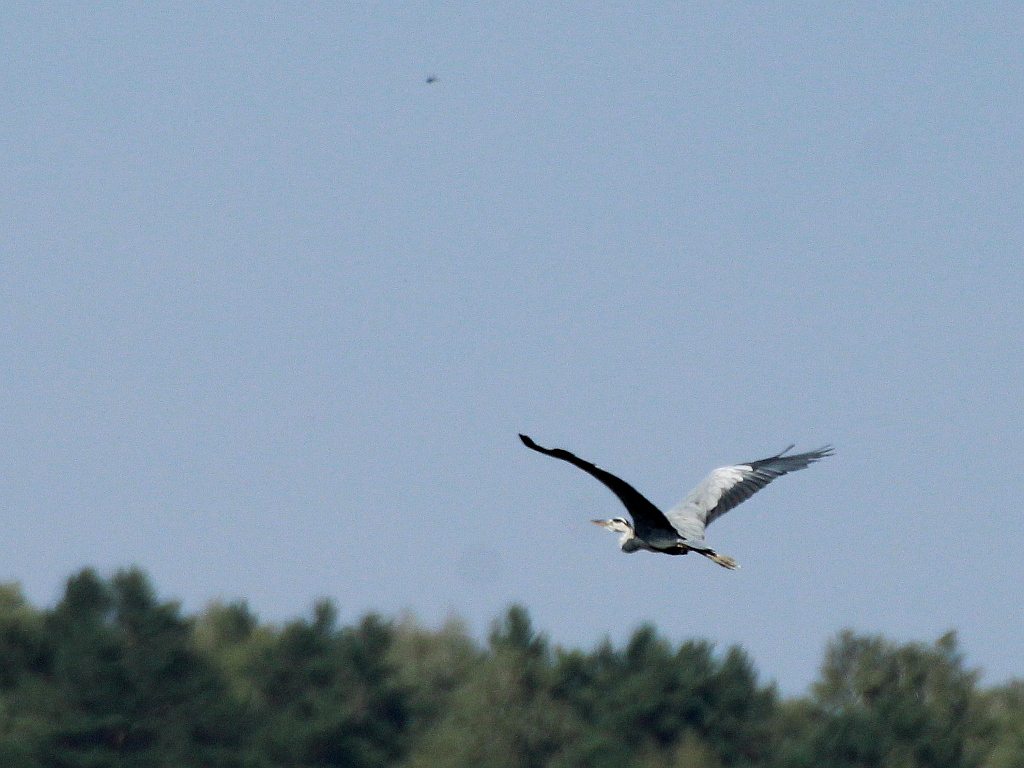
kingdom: Animalia
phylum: Chordata
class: Aves
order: Pelecaniformes
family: Ardeidae
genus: Ardea
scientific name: Ardea cinerea
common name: Grey heron
